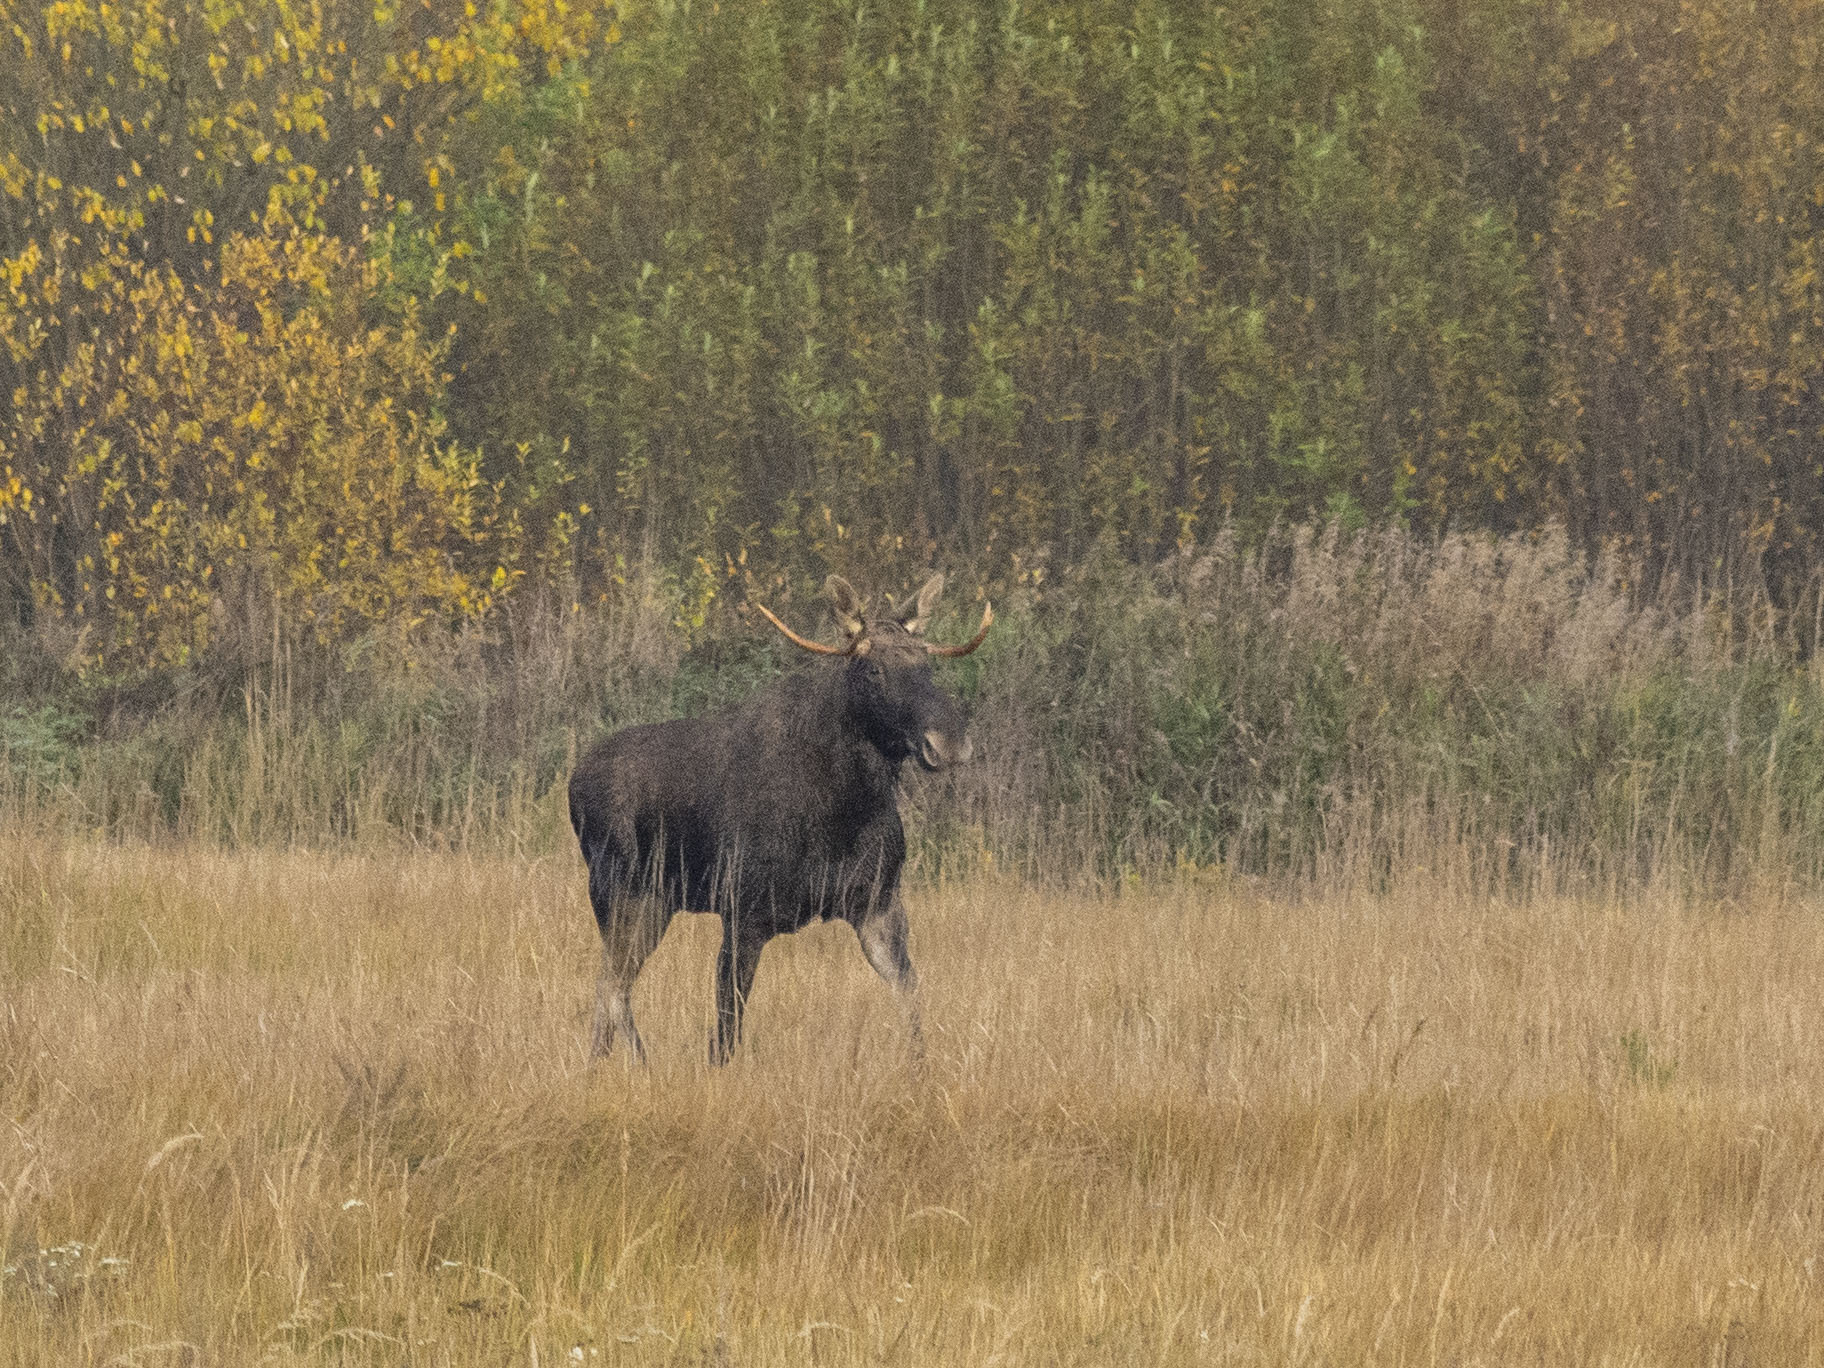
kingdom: Animalia
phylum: Chordata
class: Mammalia
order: Artiodactyla
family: Cervidae
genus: Alces
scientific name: Alces alces
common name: Moose
